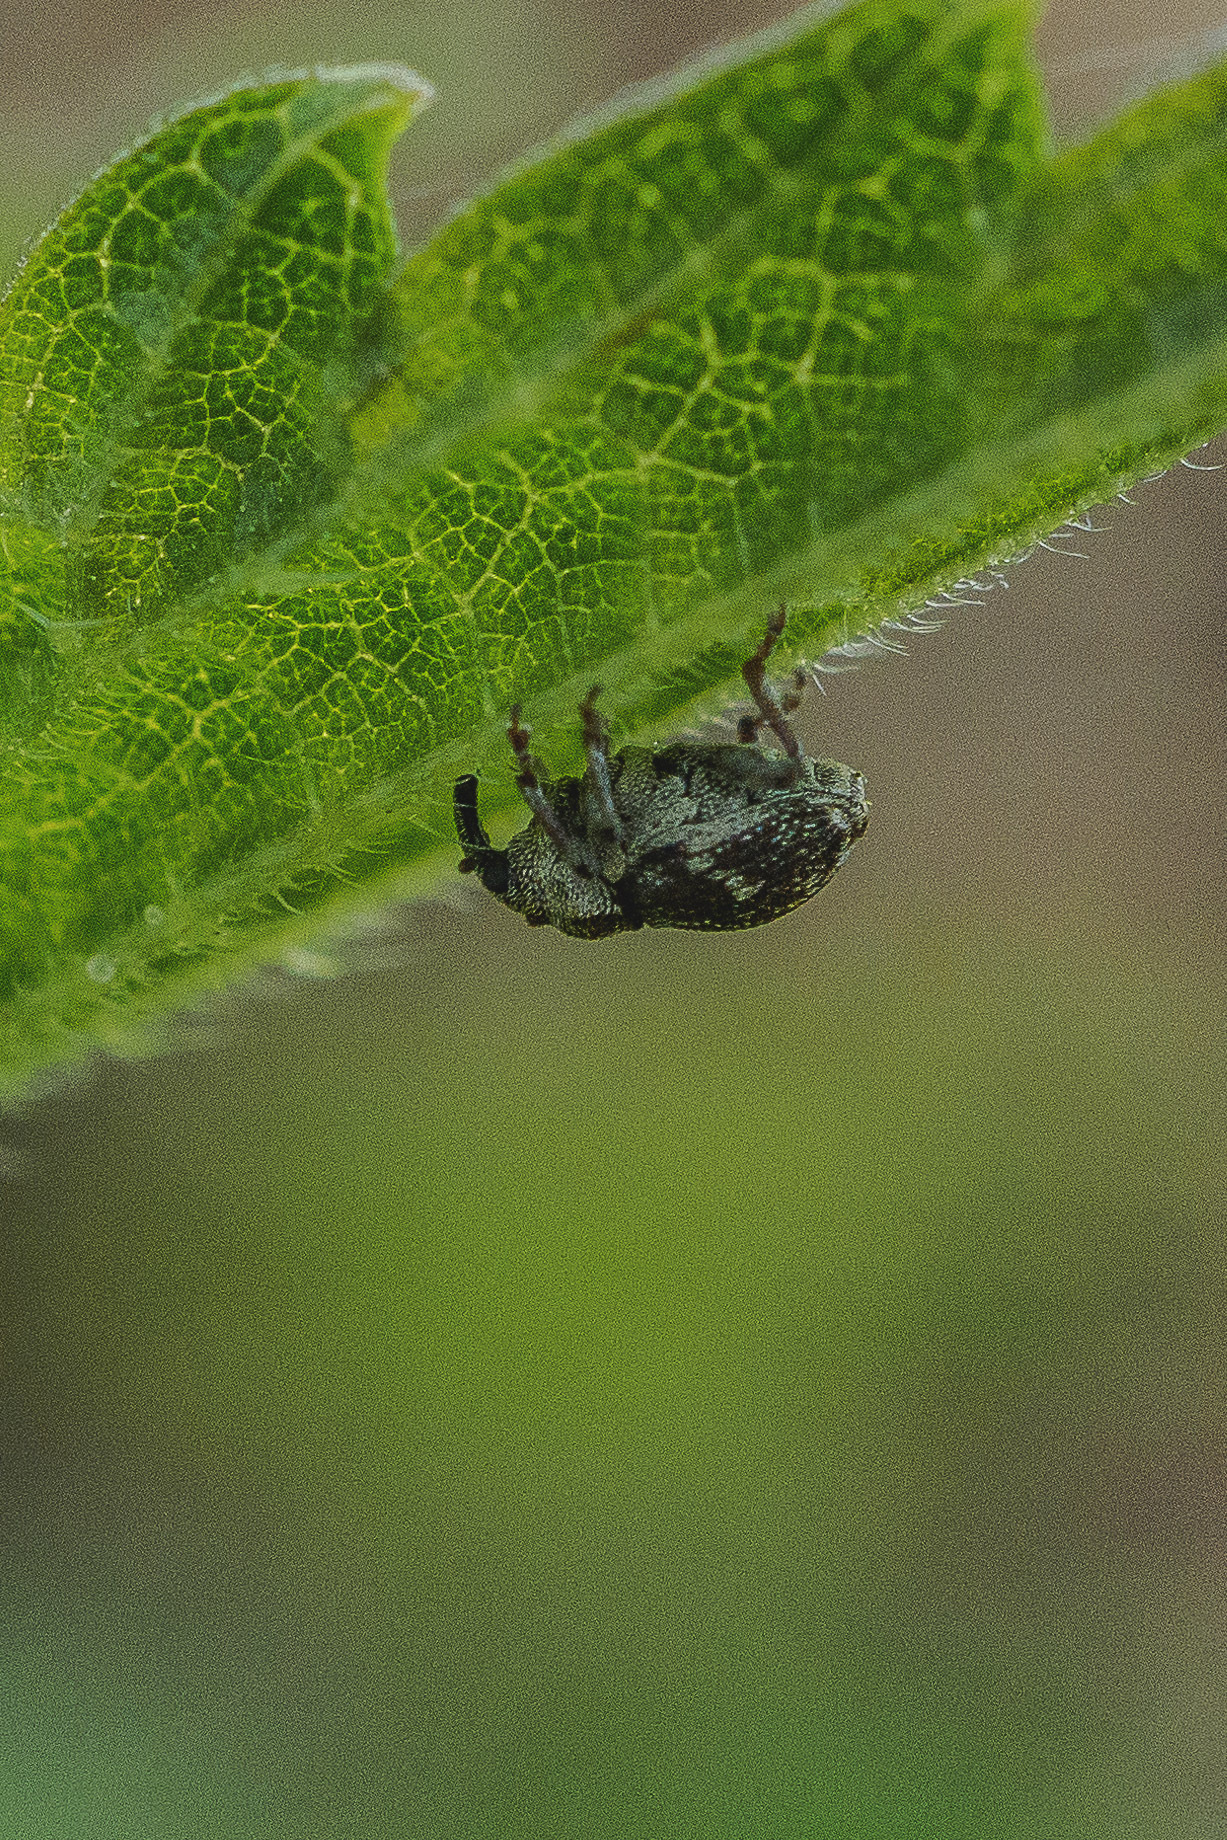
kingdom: Animalia
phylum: Arthropoda
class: Insecta
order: Coleoptera
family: Curculionidae
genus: Nedyus
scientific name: Nedyus quadrimaculatus
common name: Small nettle weevil
